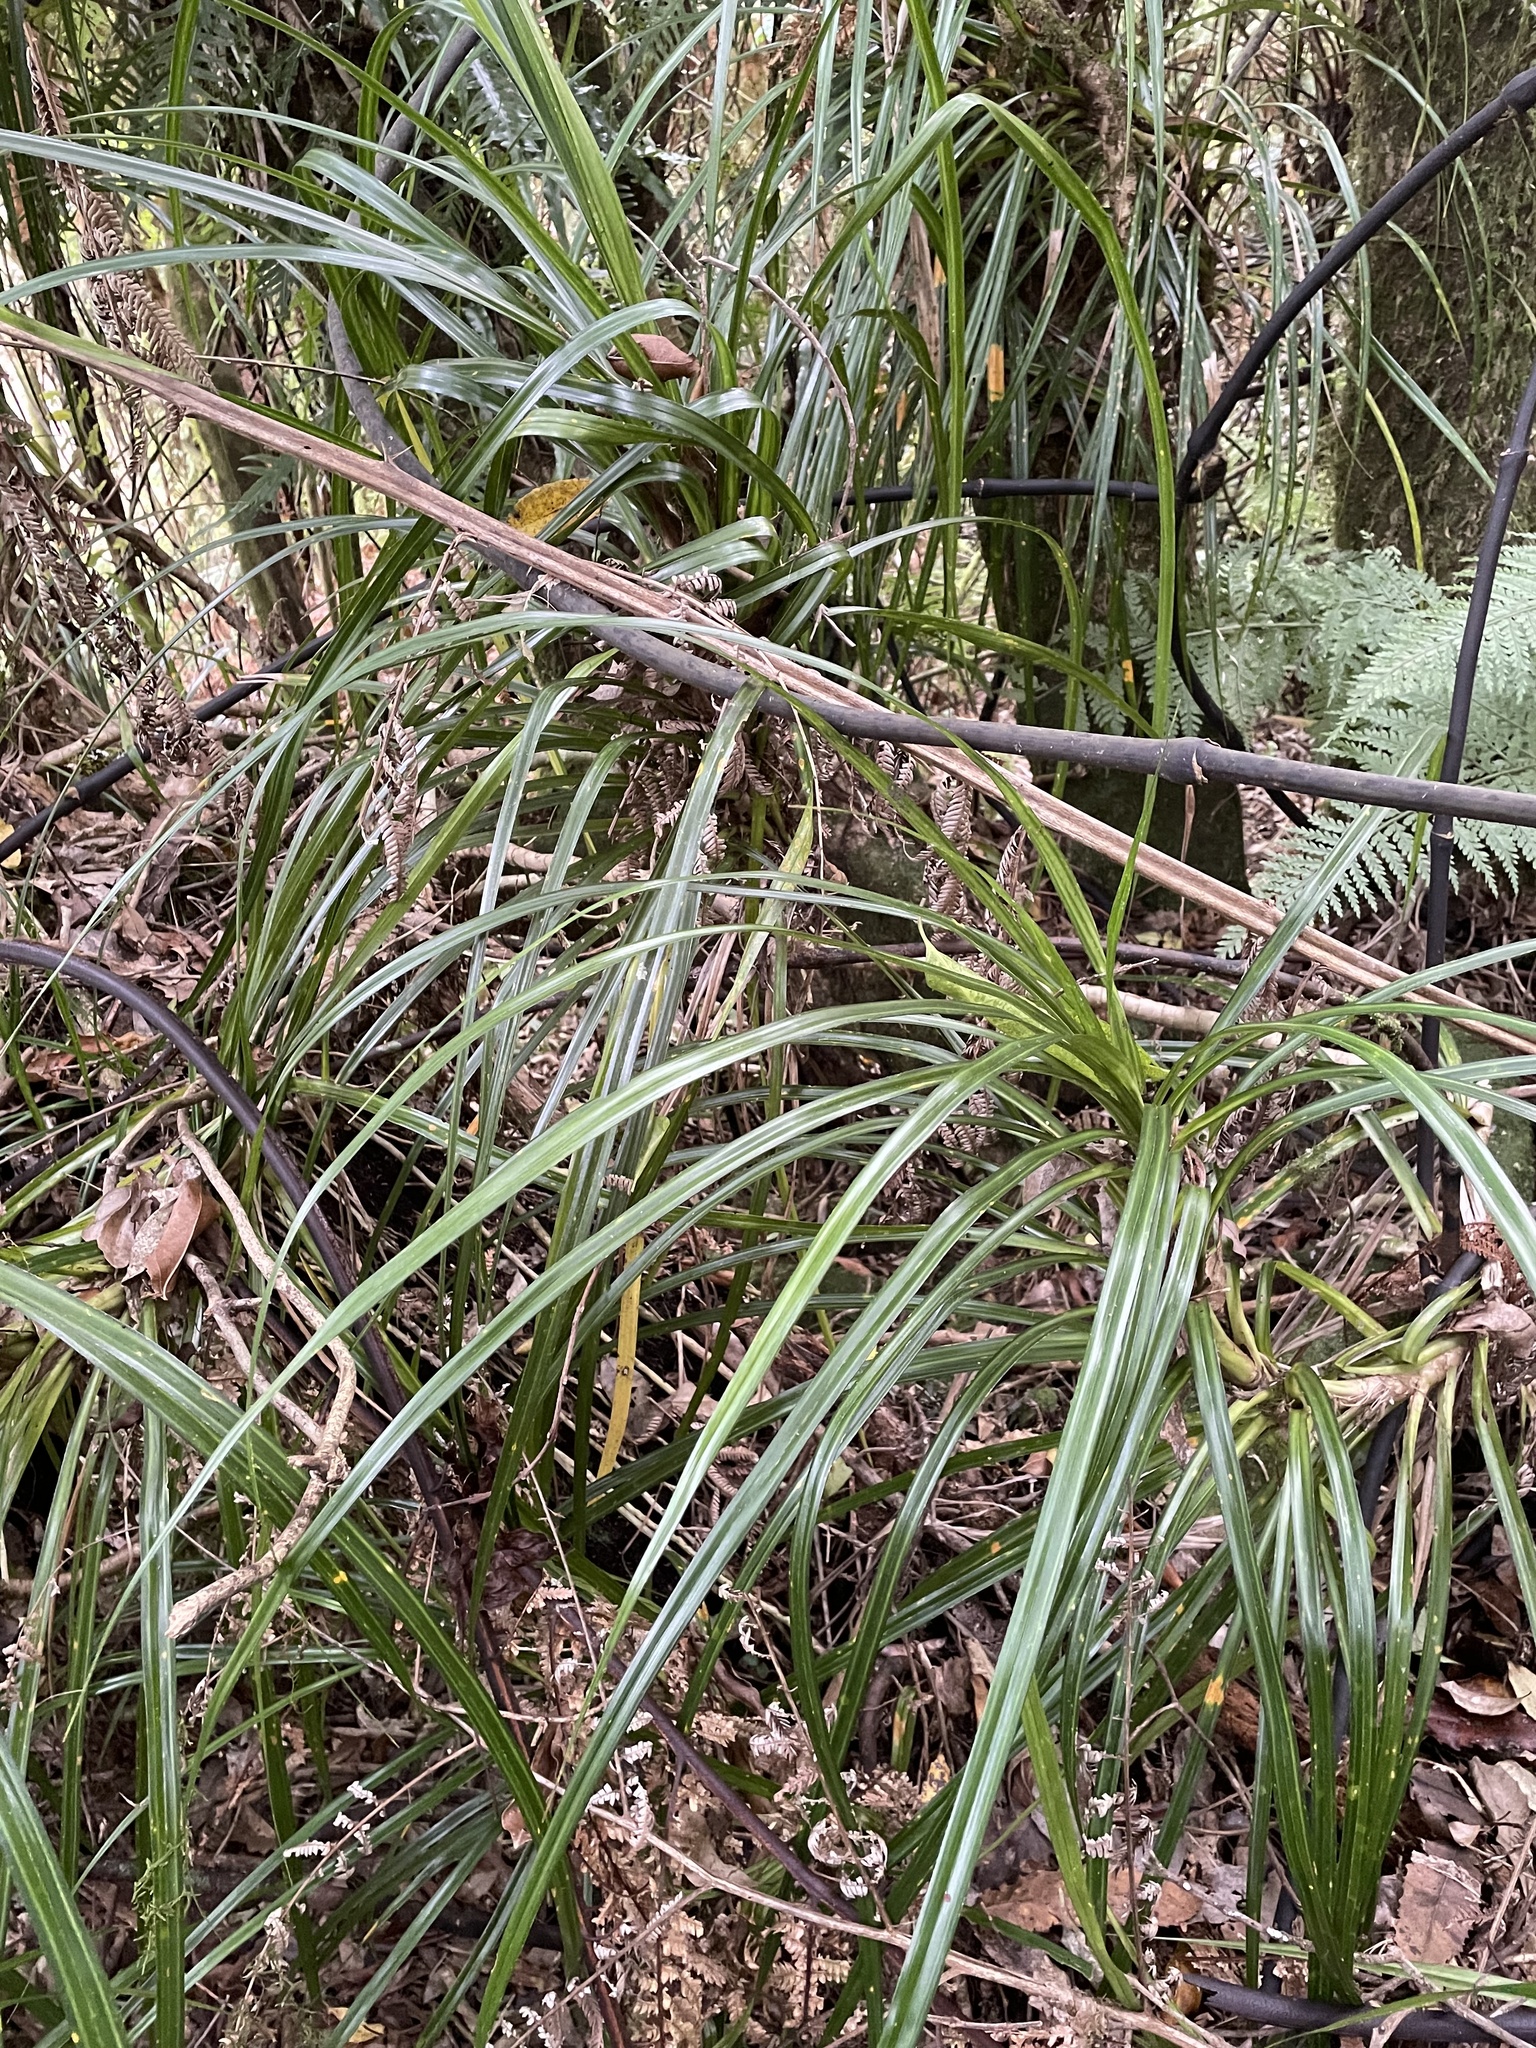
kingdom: Plantae
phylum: Tracheophyta
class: Liliopsida
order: Pandanales
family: Pandanaceae
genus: Freycinetia
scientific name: Freycinetia banksii
